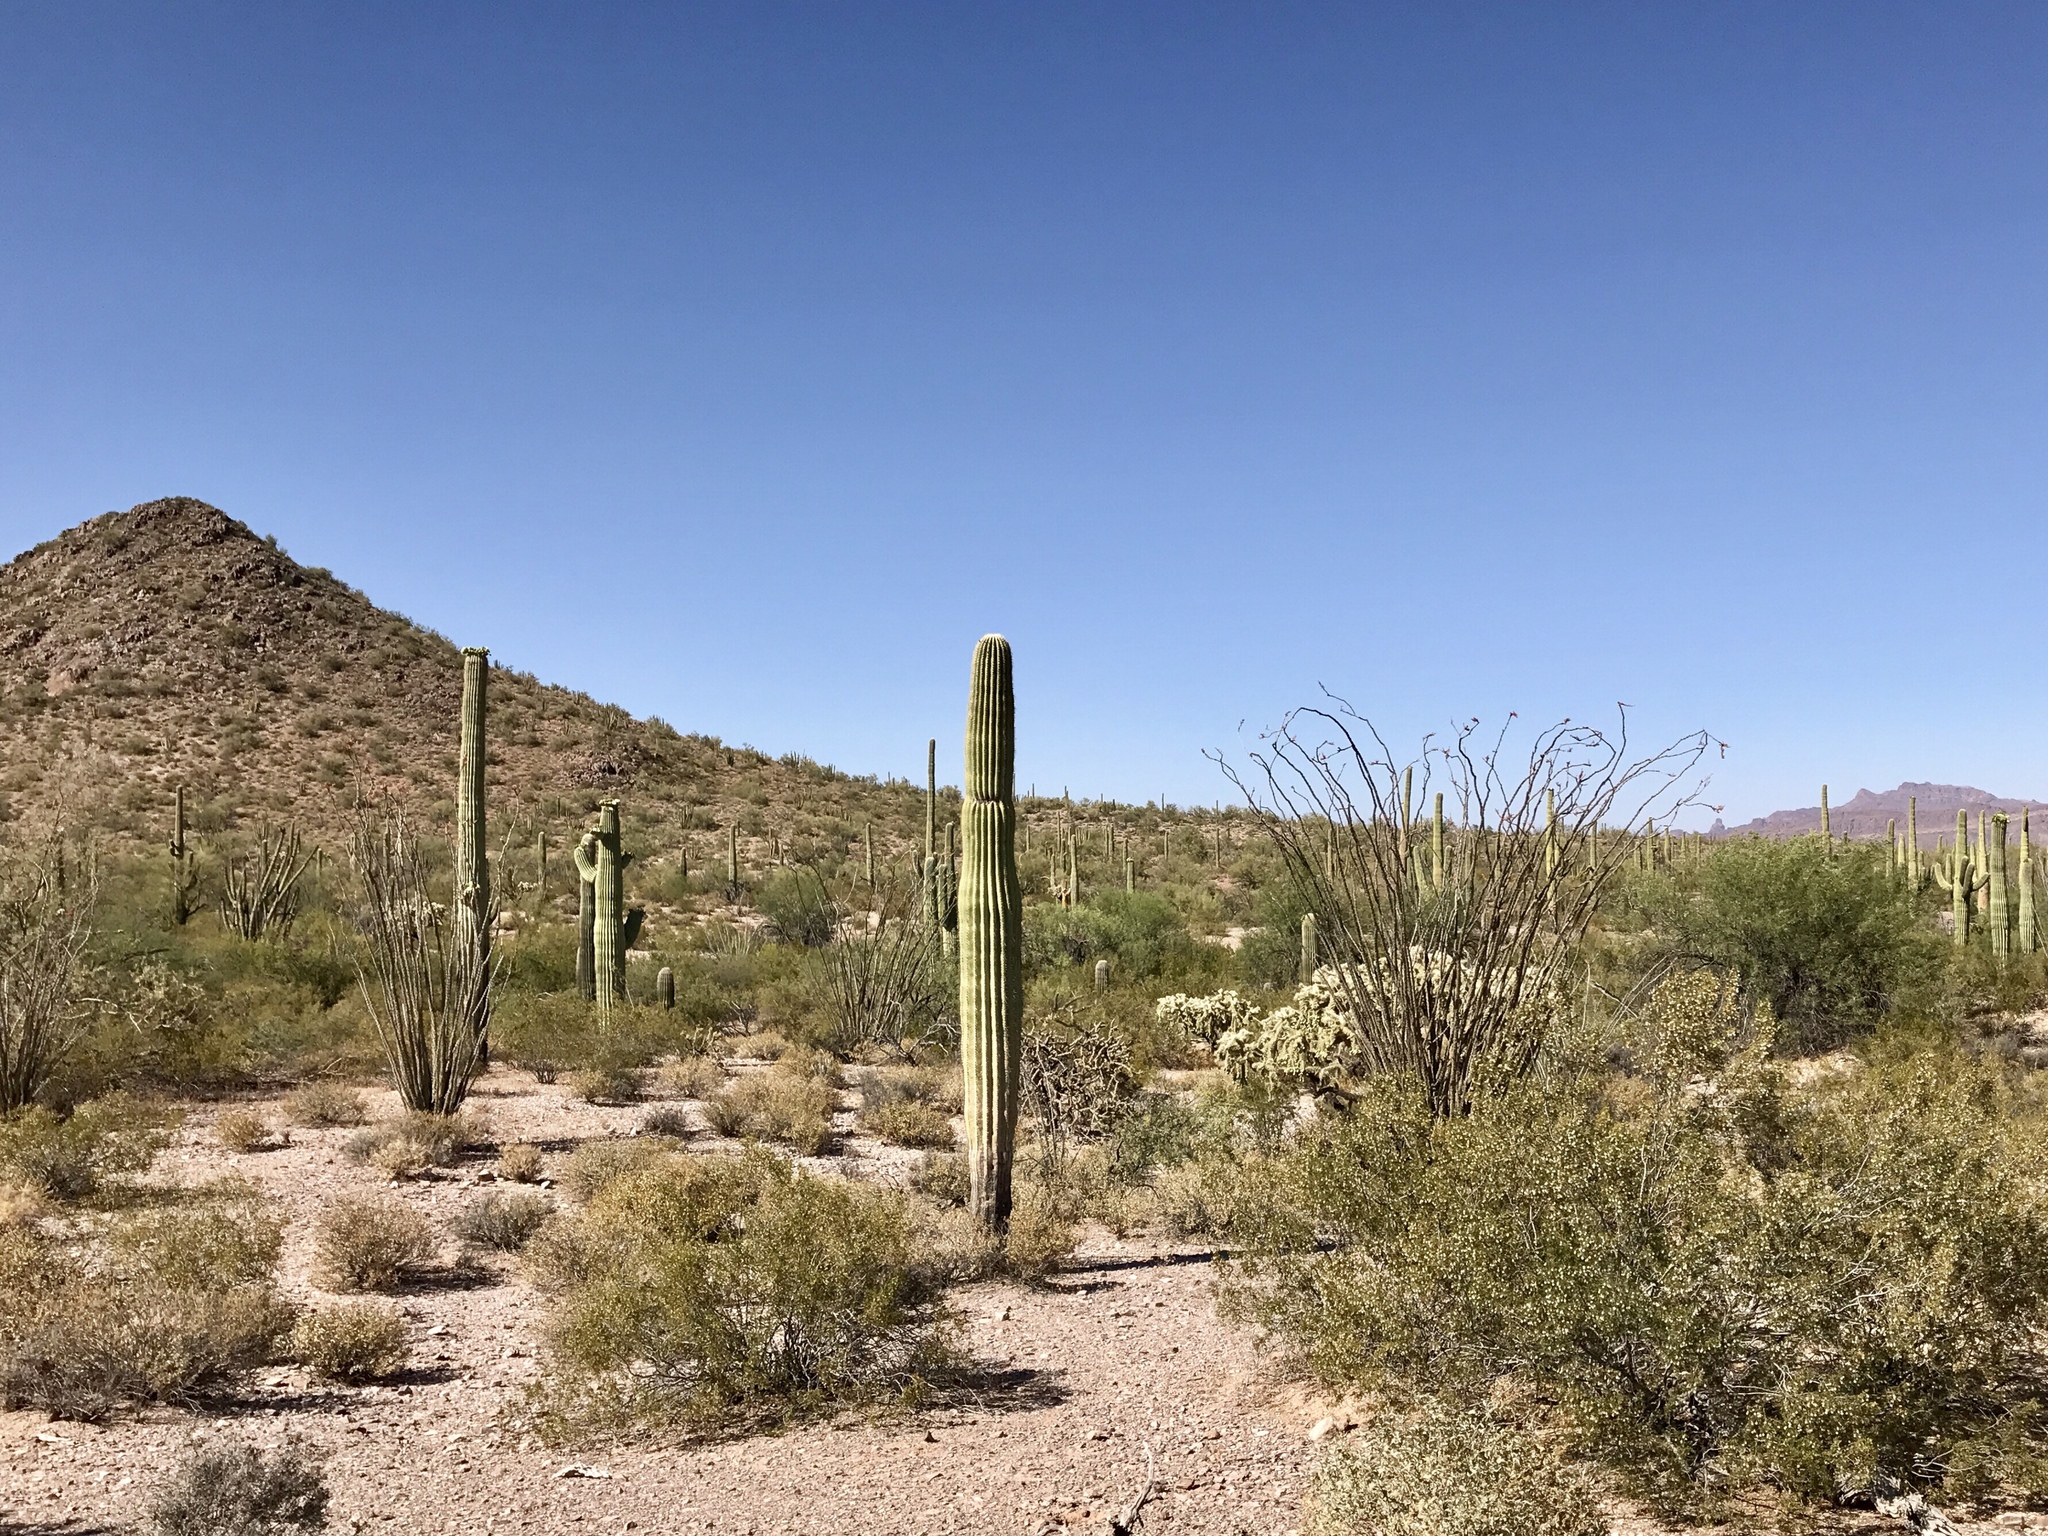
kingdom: Plantae
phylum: Tracheophyta
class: Magnoliopsida
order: Caryophyllales
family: Cactaceae
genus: Carnegiea
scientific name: Carnegiea gigantea
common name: Saguaro
